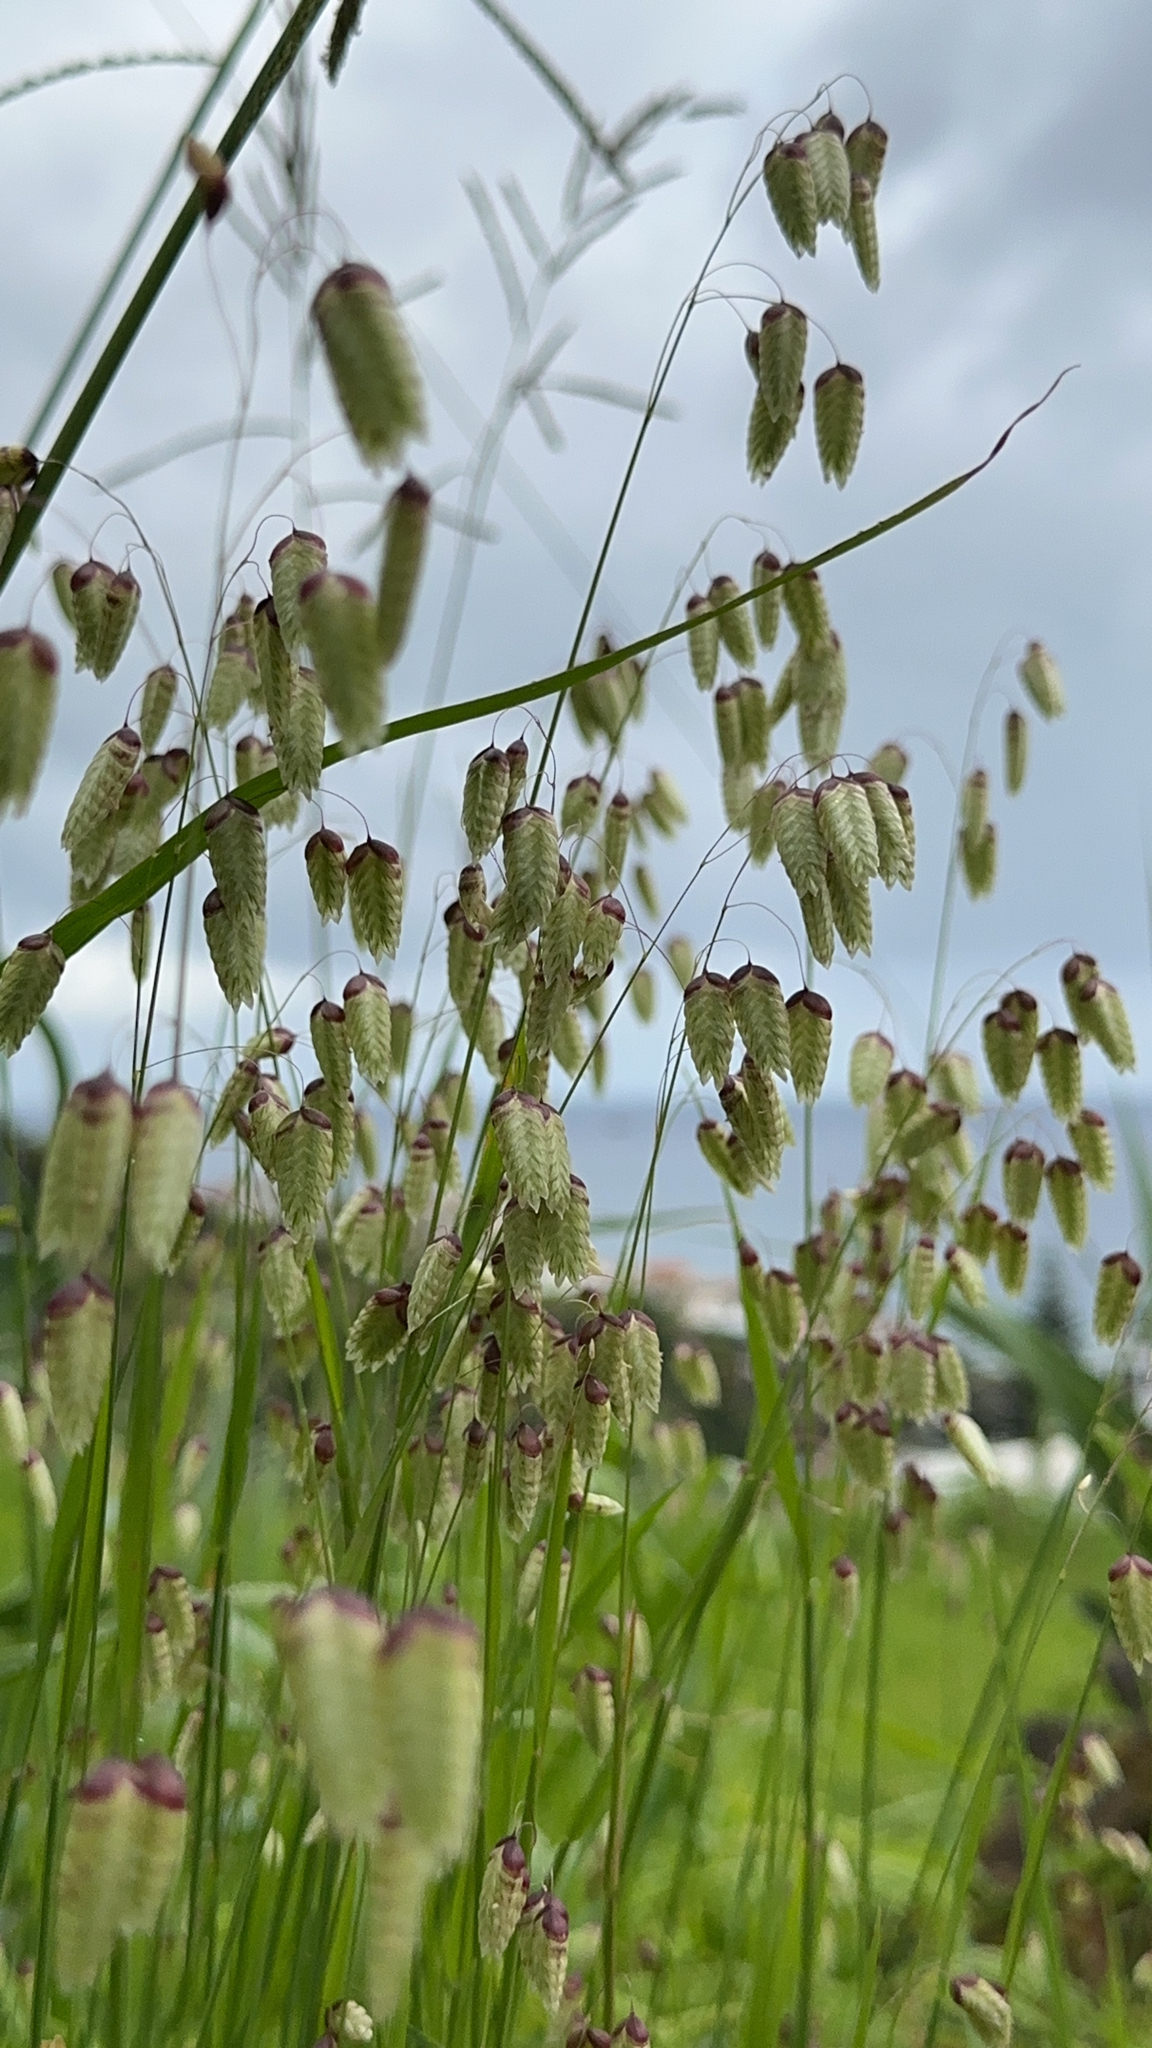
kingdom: Plantae
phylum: Tracheophyta
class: Liliopsida
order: Poales
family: Poaceae
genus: Briza
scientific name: Briza maxima
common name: Big quakinggrass
